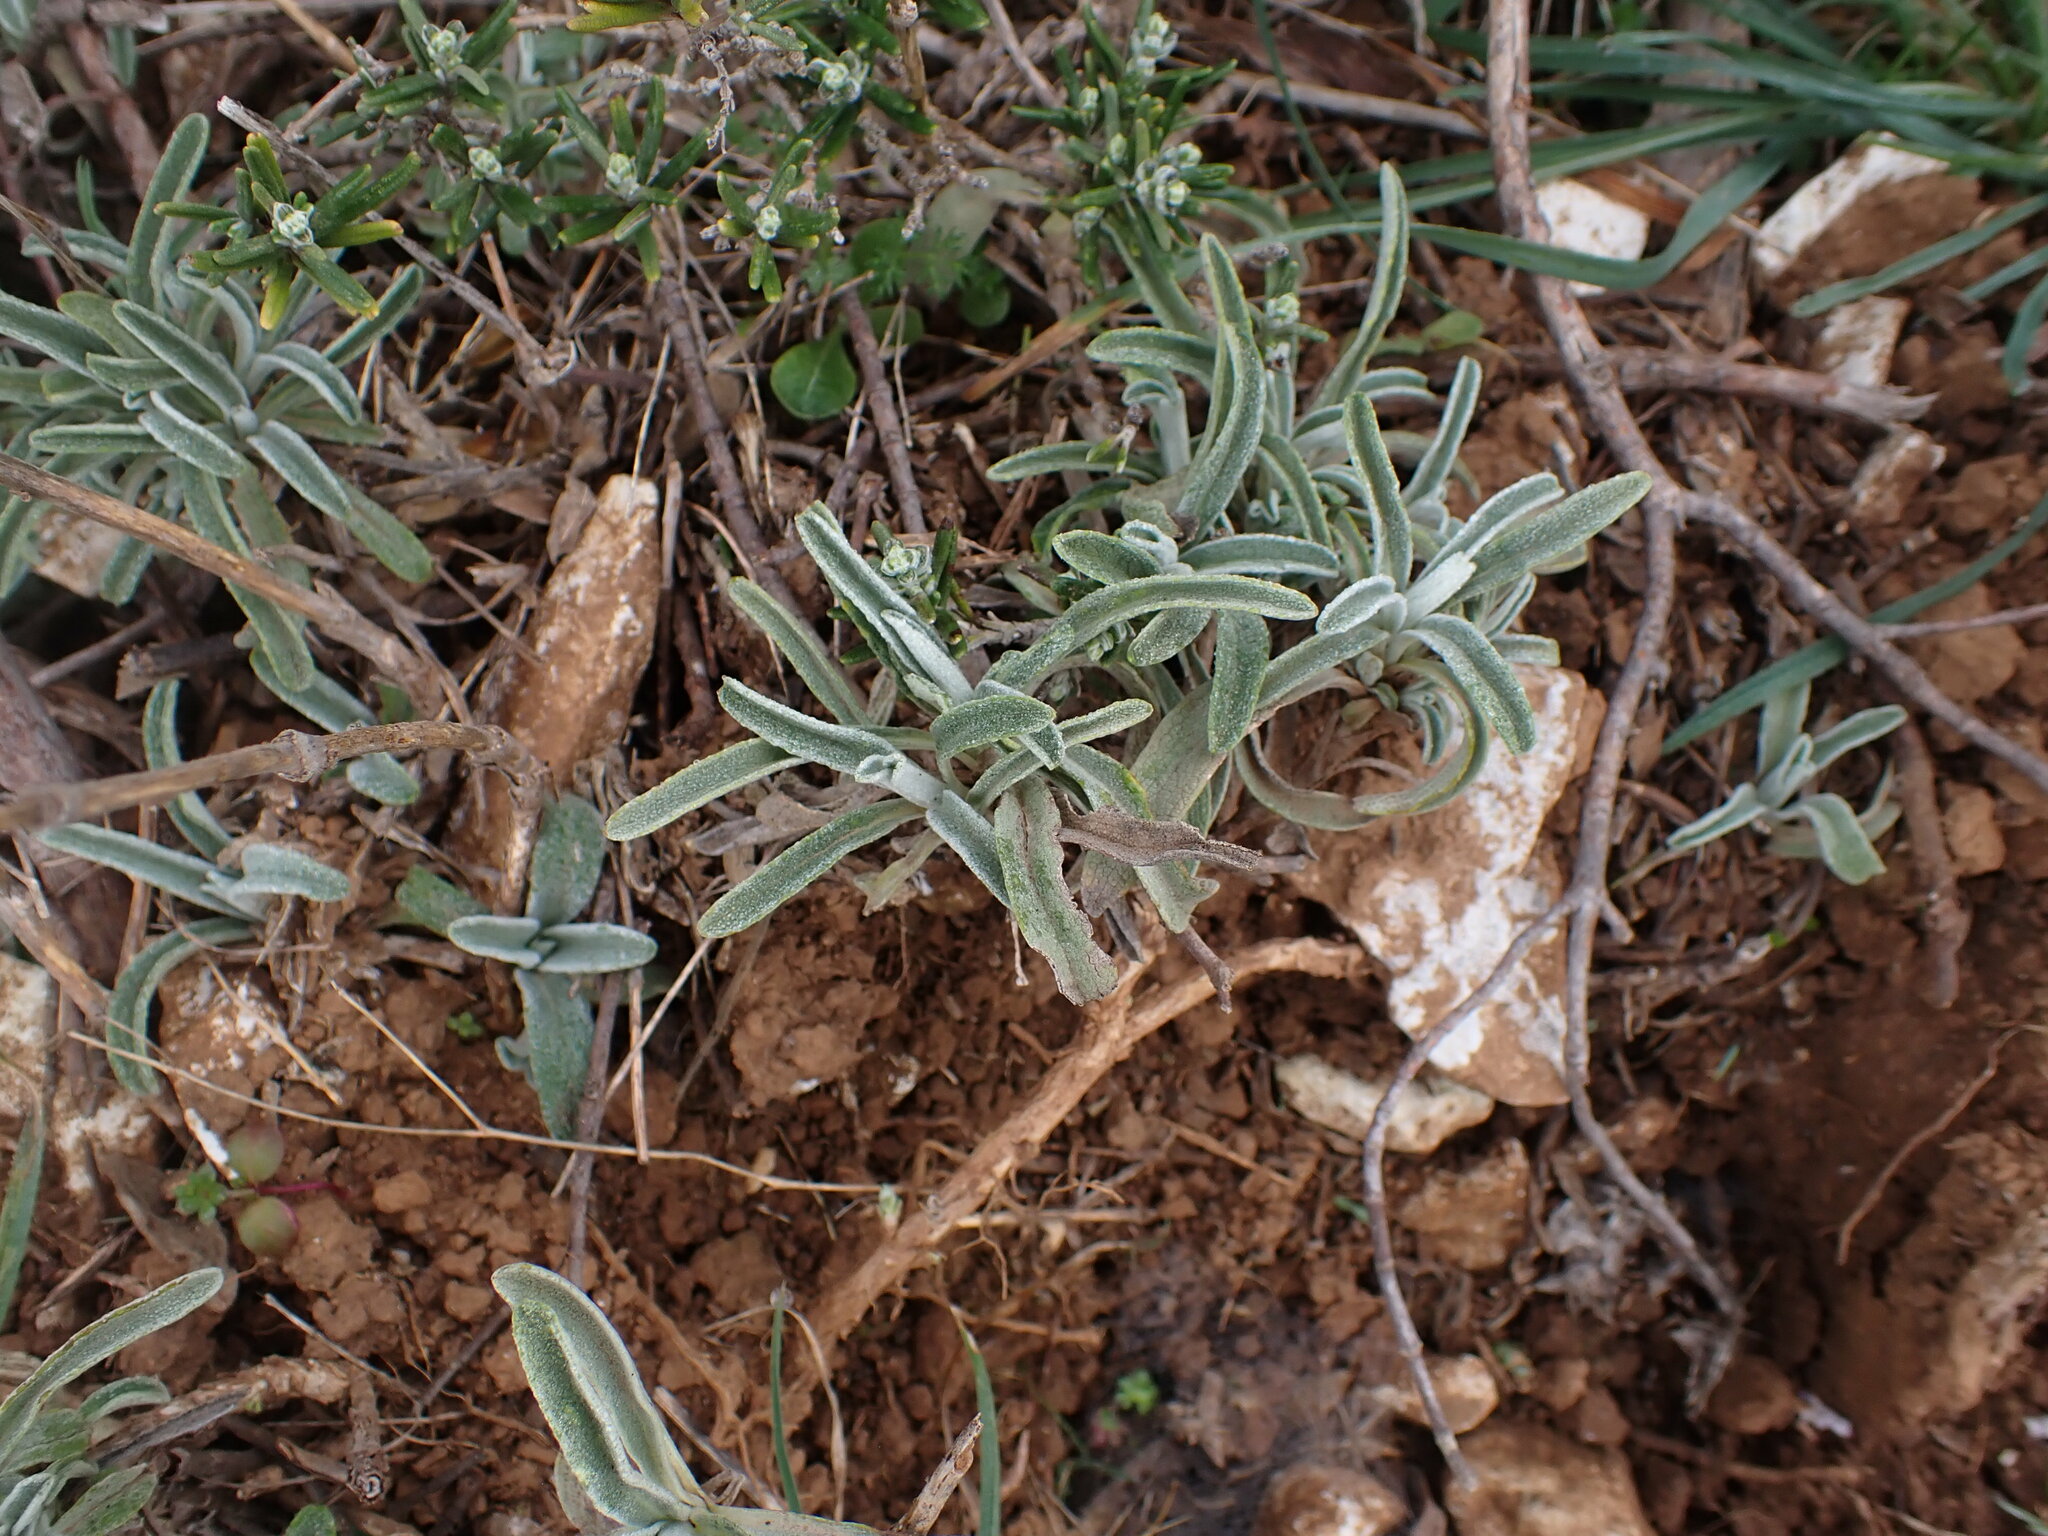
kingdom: Plantae
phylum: Tracheophyta
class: Magnoliopsida
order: Lamiales
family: Lamiaceae
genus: Phlomis
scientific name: Phlomis lychnitis
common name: Lampwickplant
